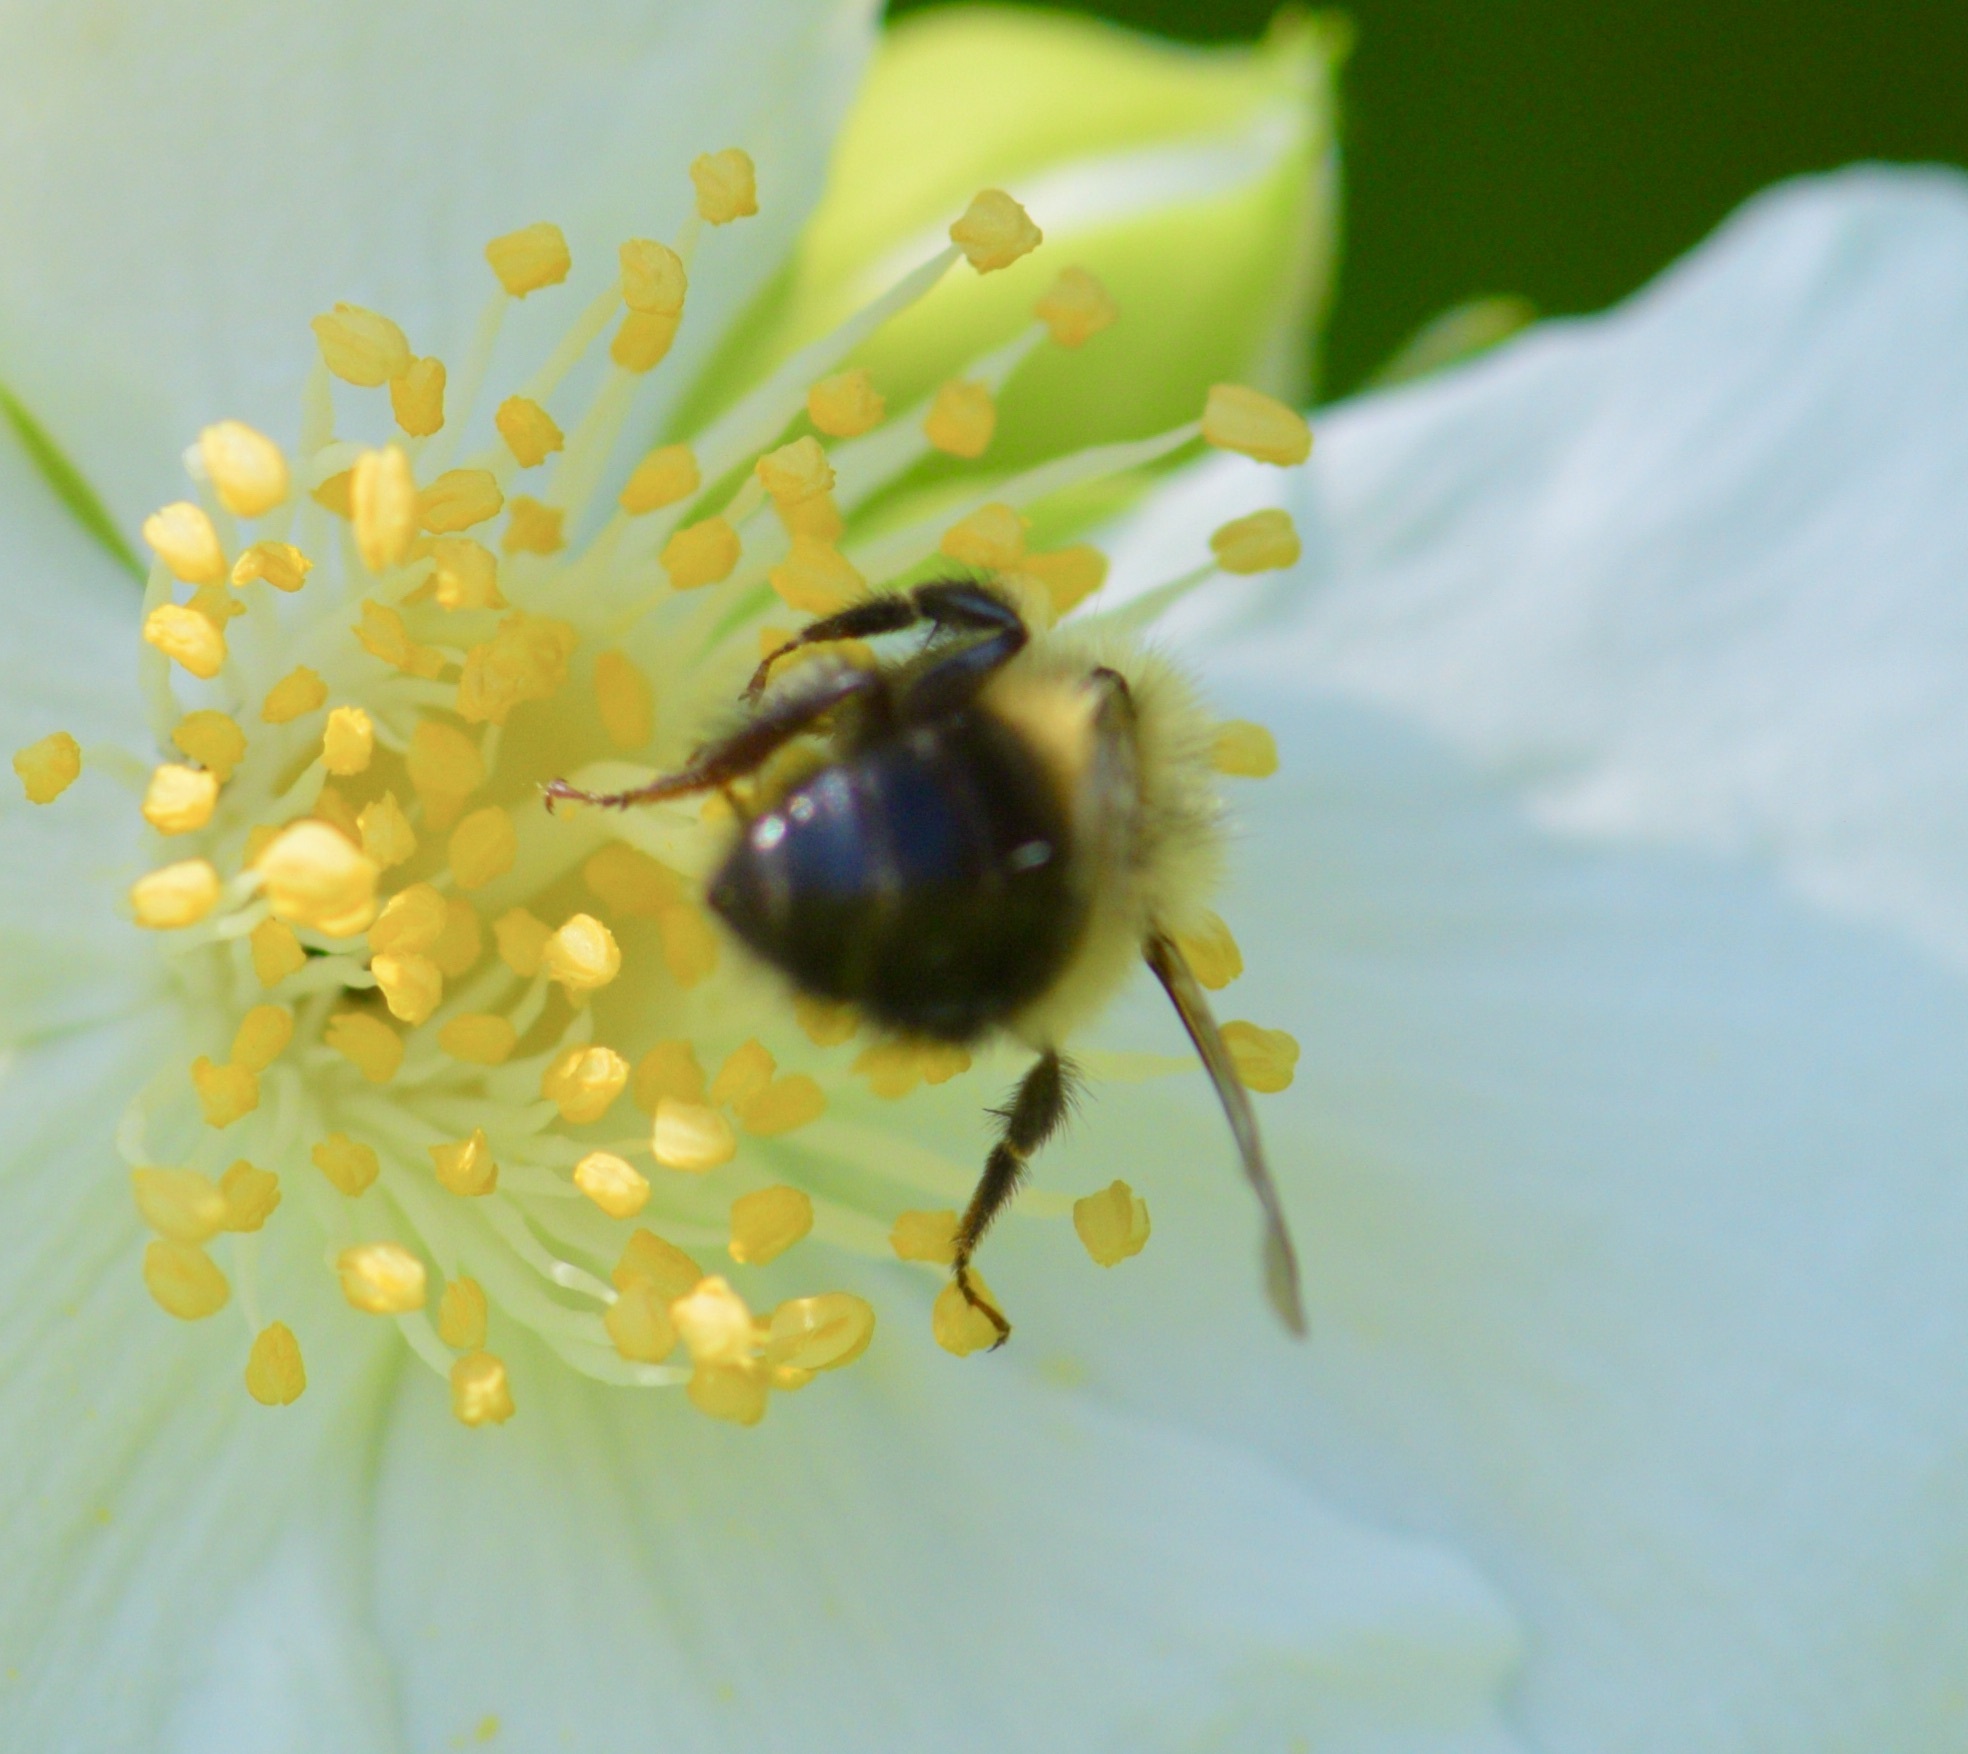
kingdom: Animalia
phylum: Arthropoda
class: Insecta
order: Hymenoptera
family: Apidae
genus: Pyrobombus
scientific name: Pyrobombus
